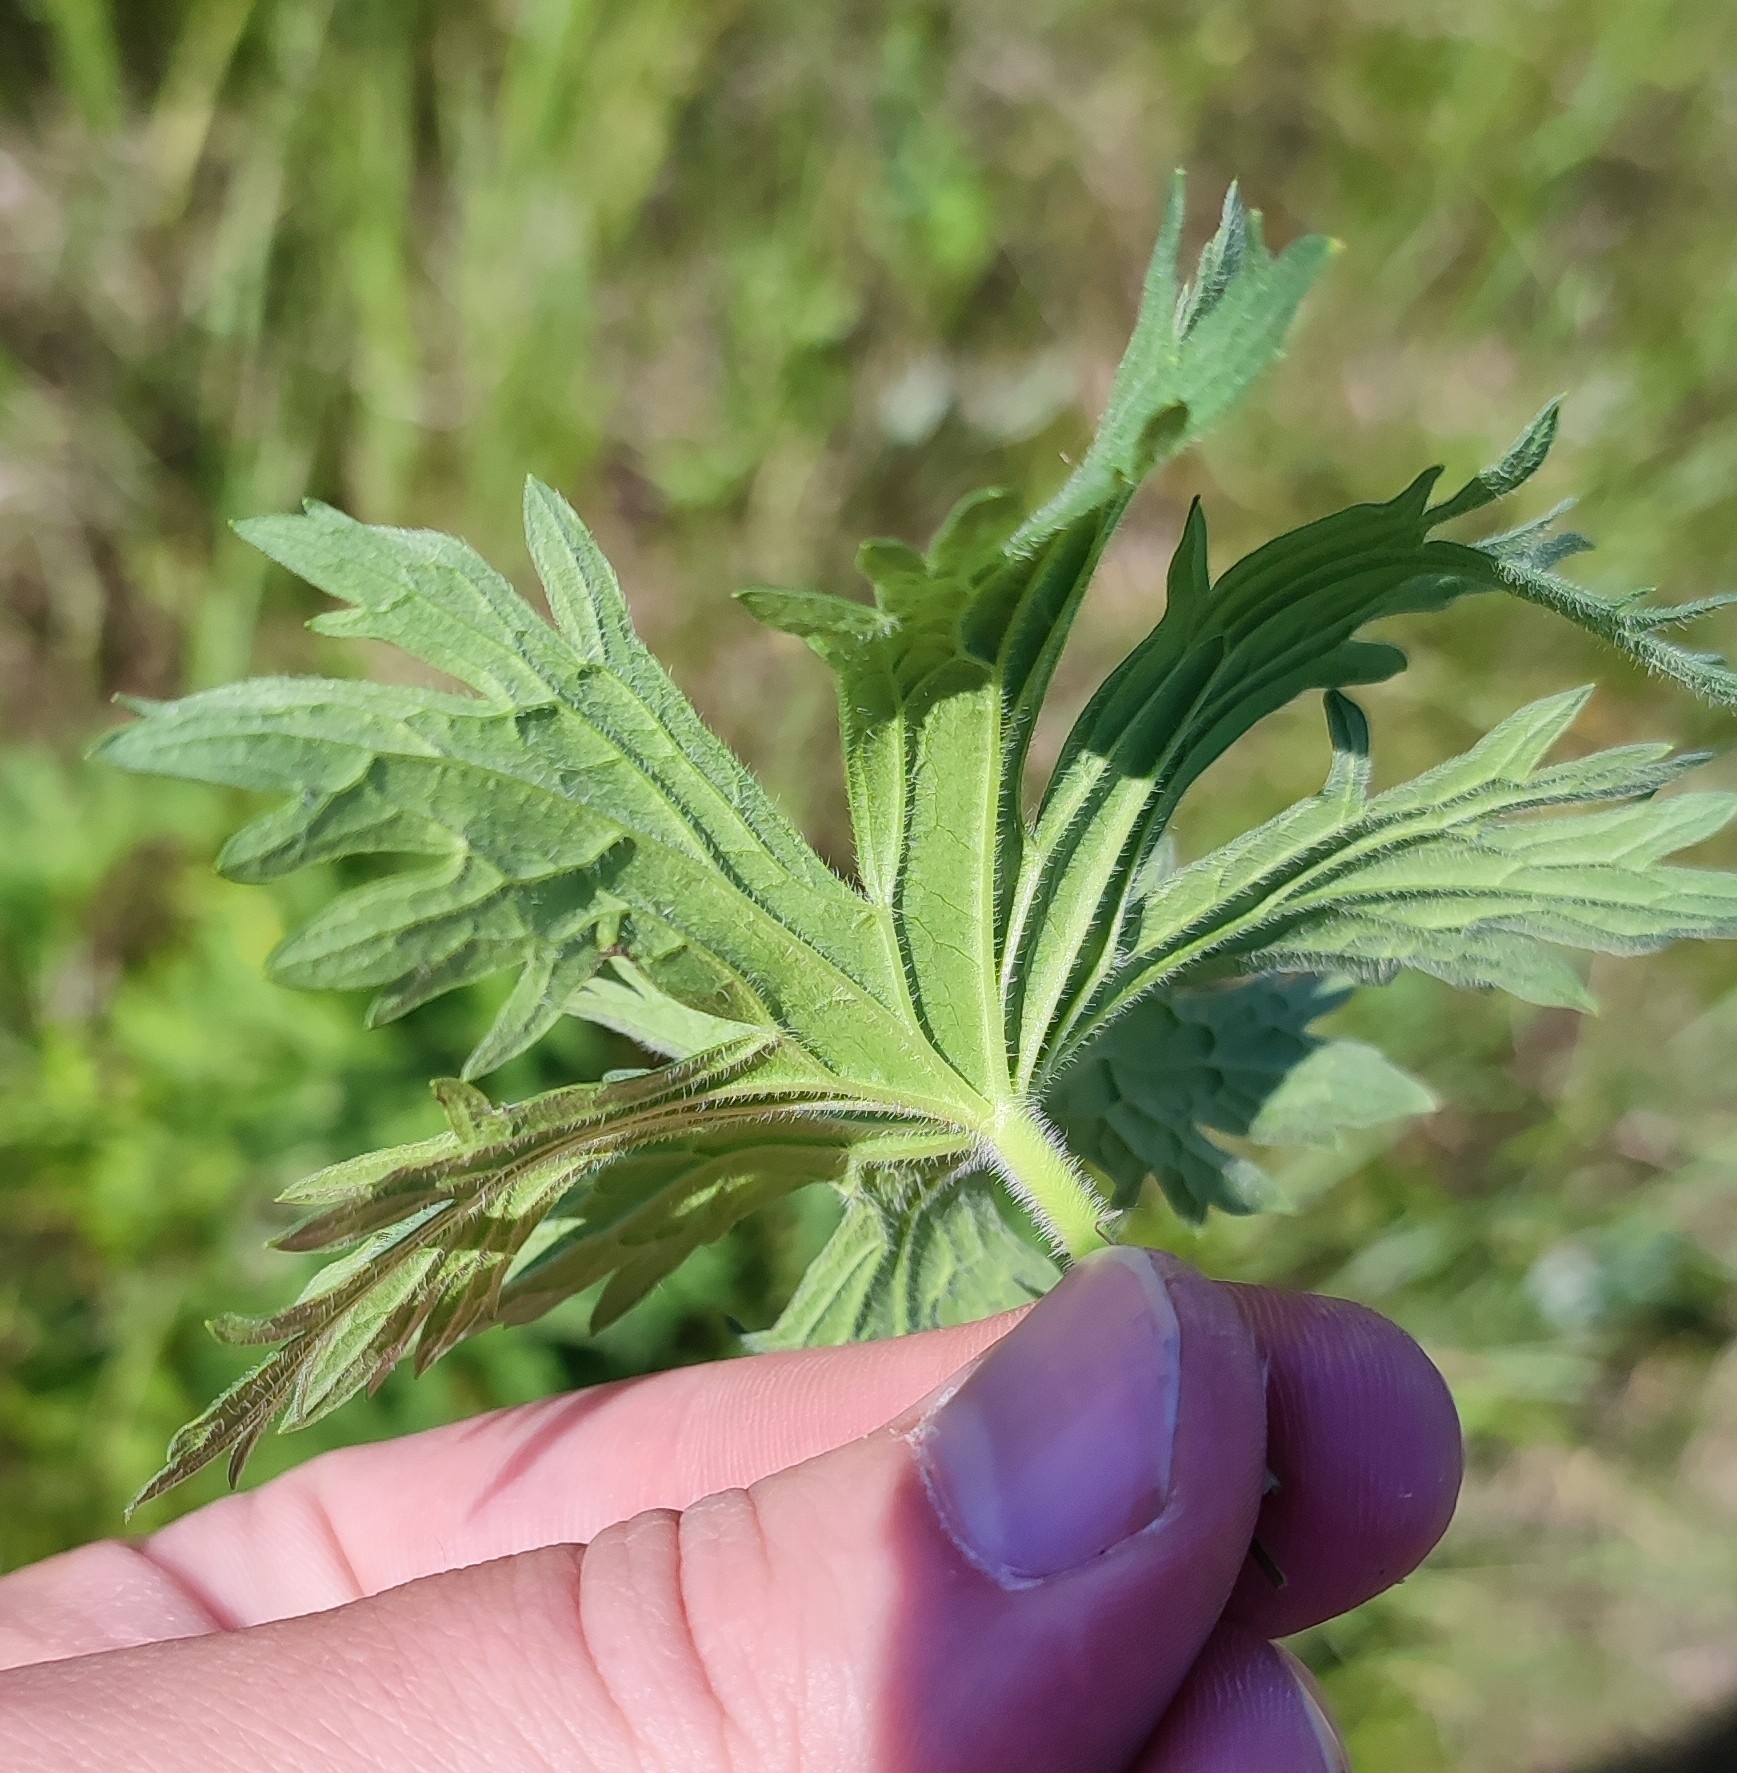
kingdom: Plantae
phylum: Tracheophyta
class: Magnoliopsida
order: Geraniales
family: Geraniaceae
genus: Geranium
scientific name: Geranium pratense
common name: Meadow crane's-bill
